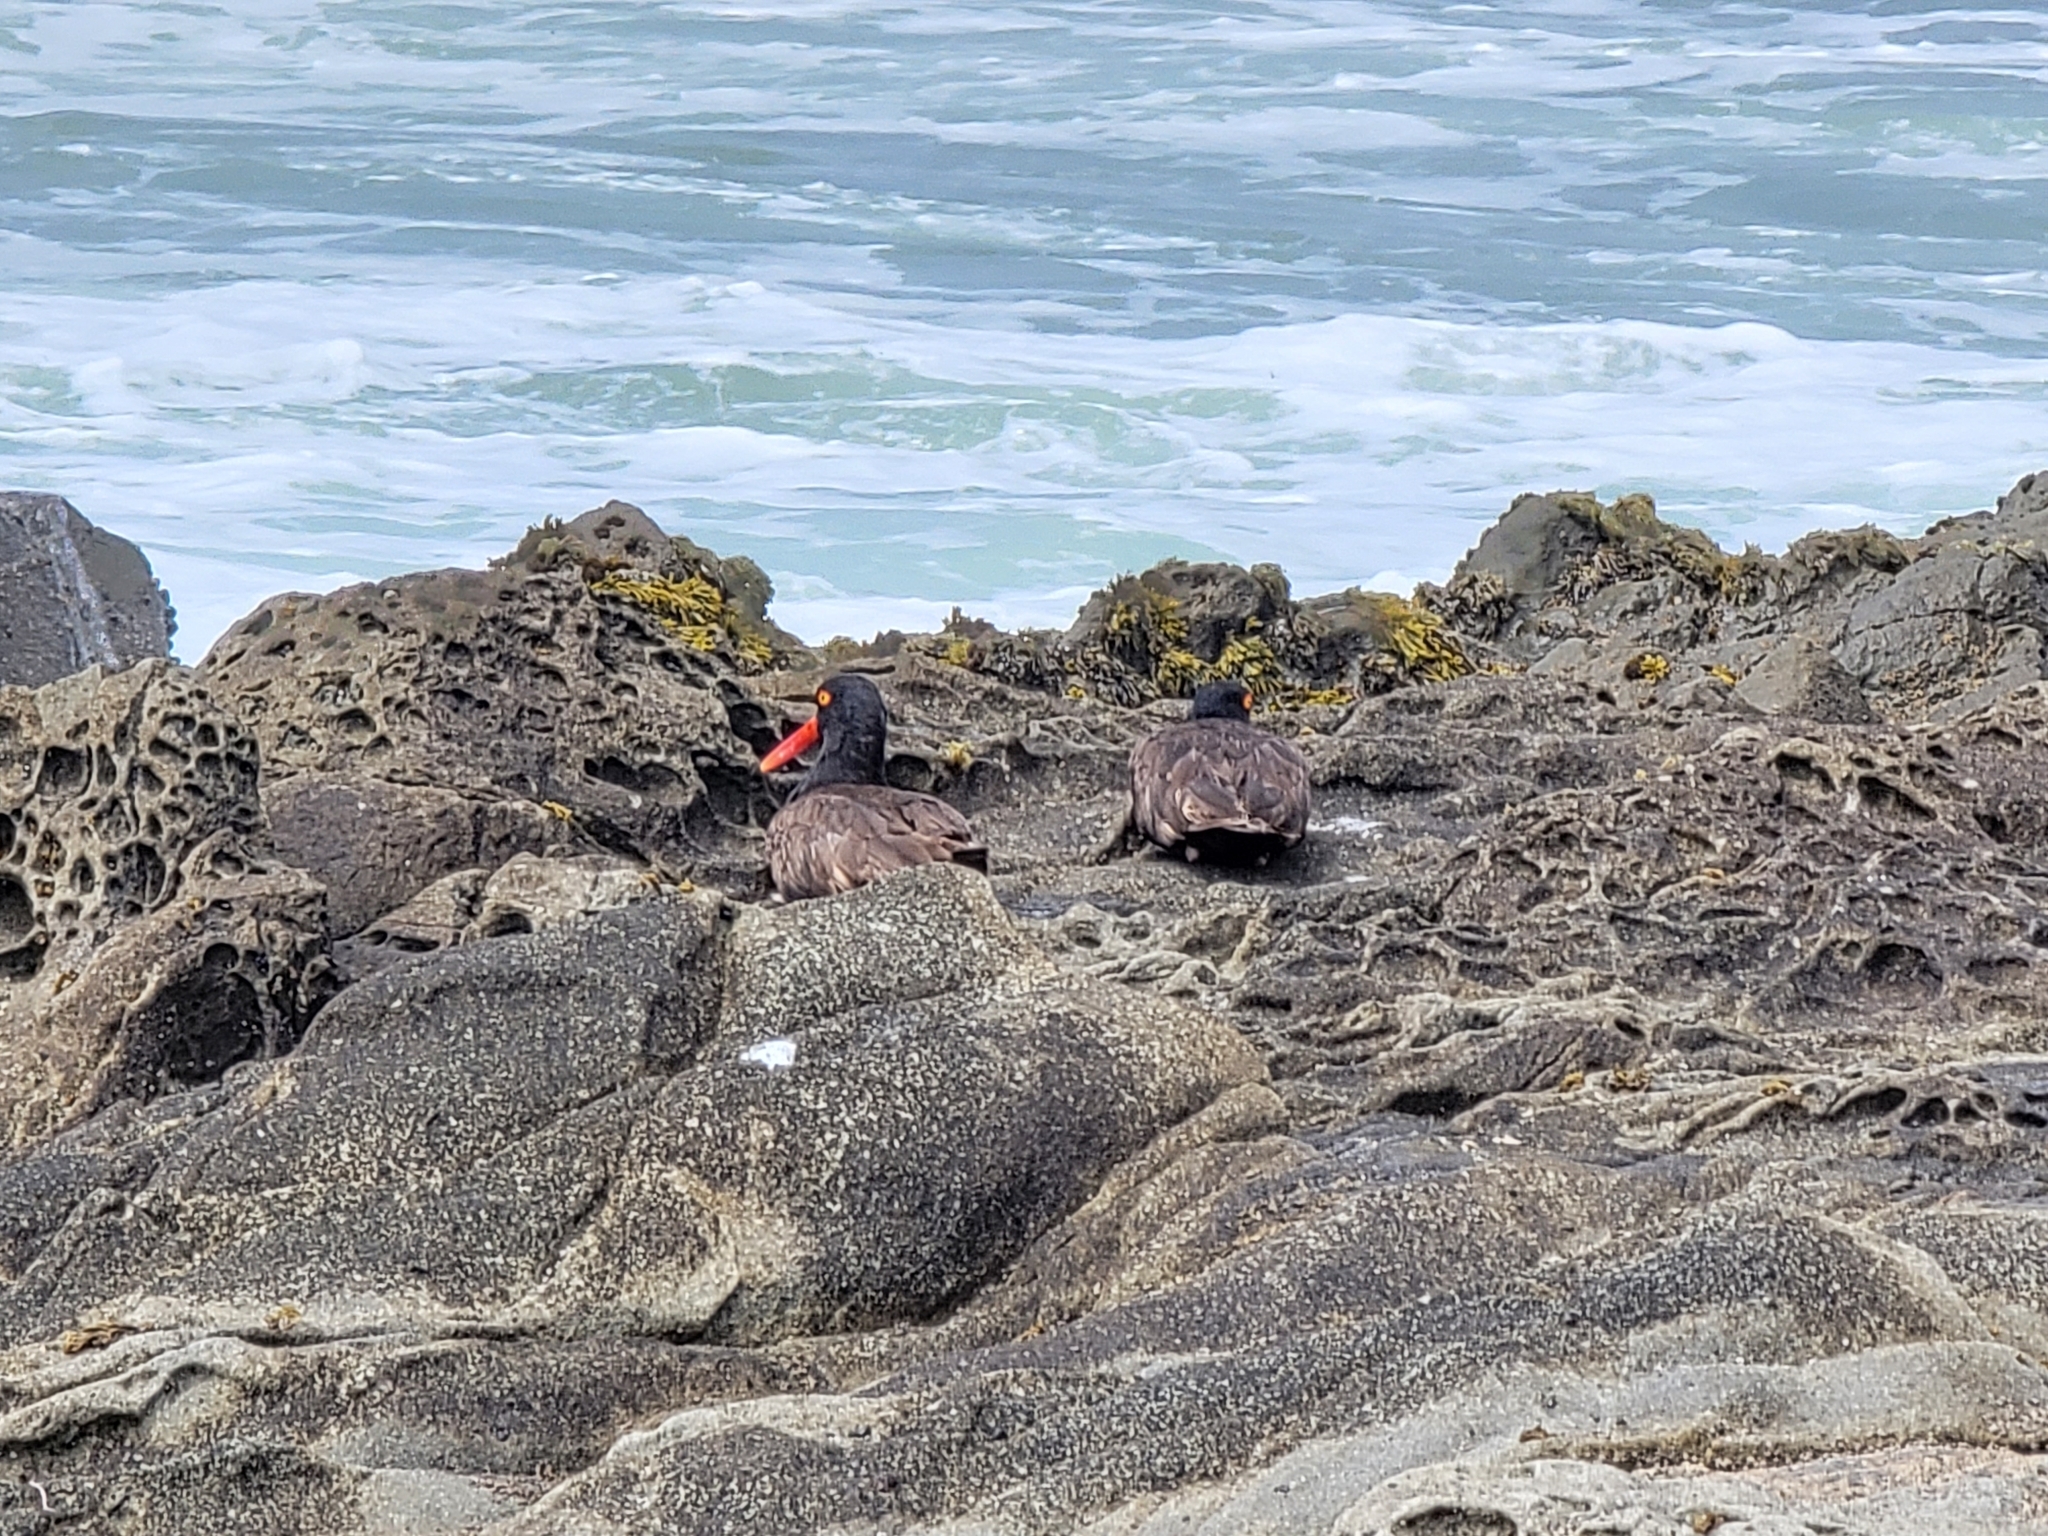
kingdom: Animalia
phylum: Chordata
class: Aves
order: Charadriiformes
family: Haematopodidae
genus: Haematopus
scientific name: Haematopus bachmani
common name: Black oystercatcher
